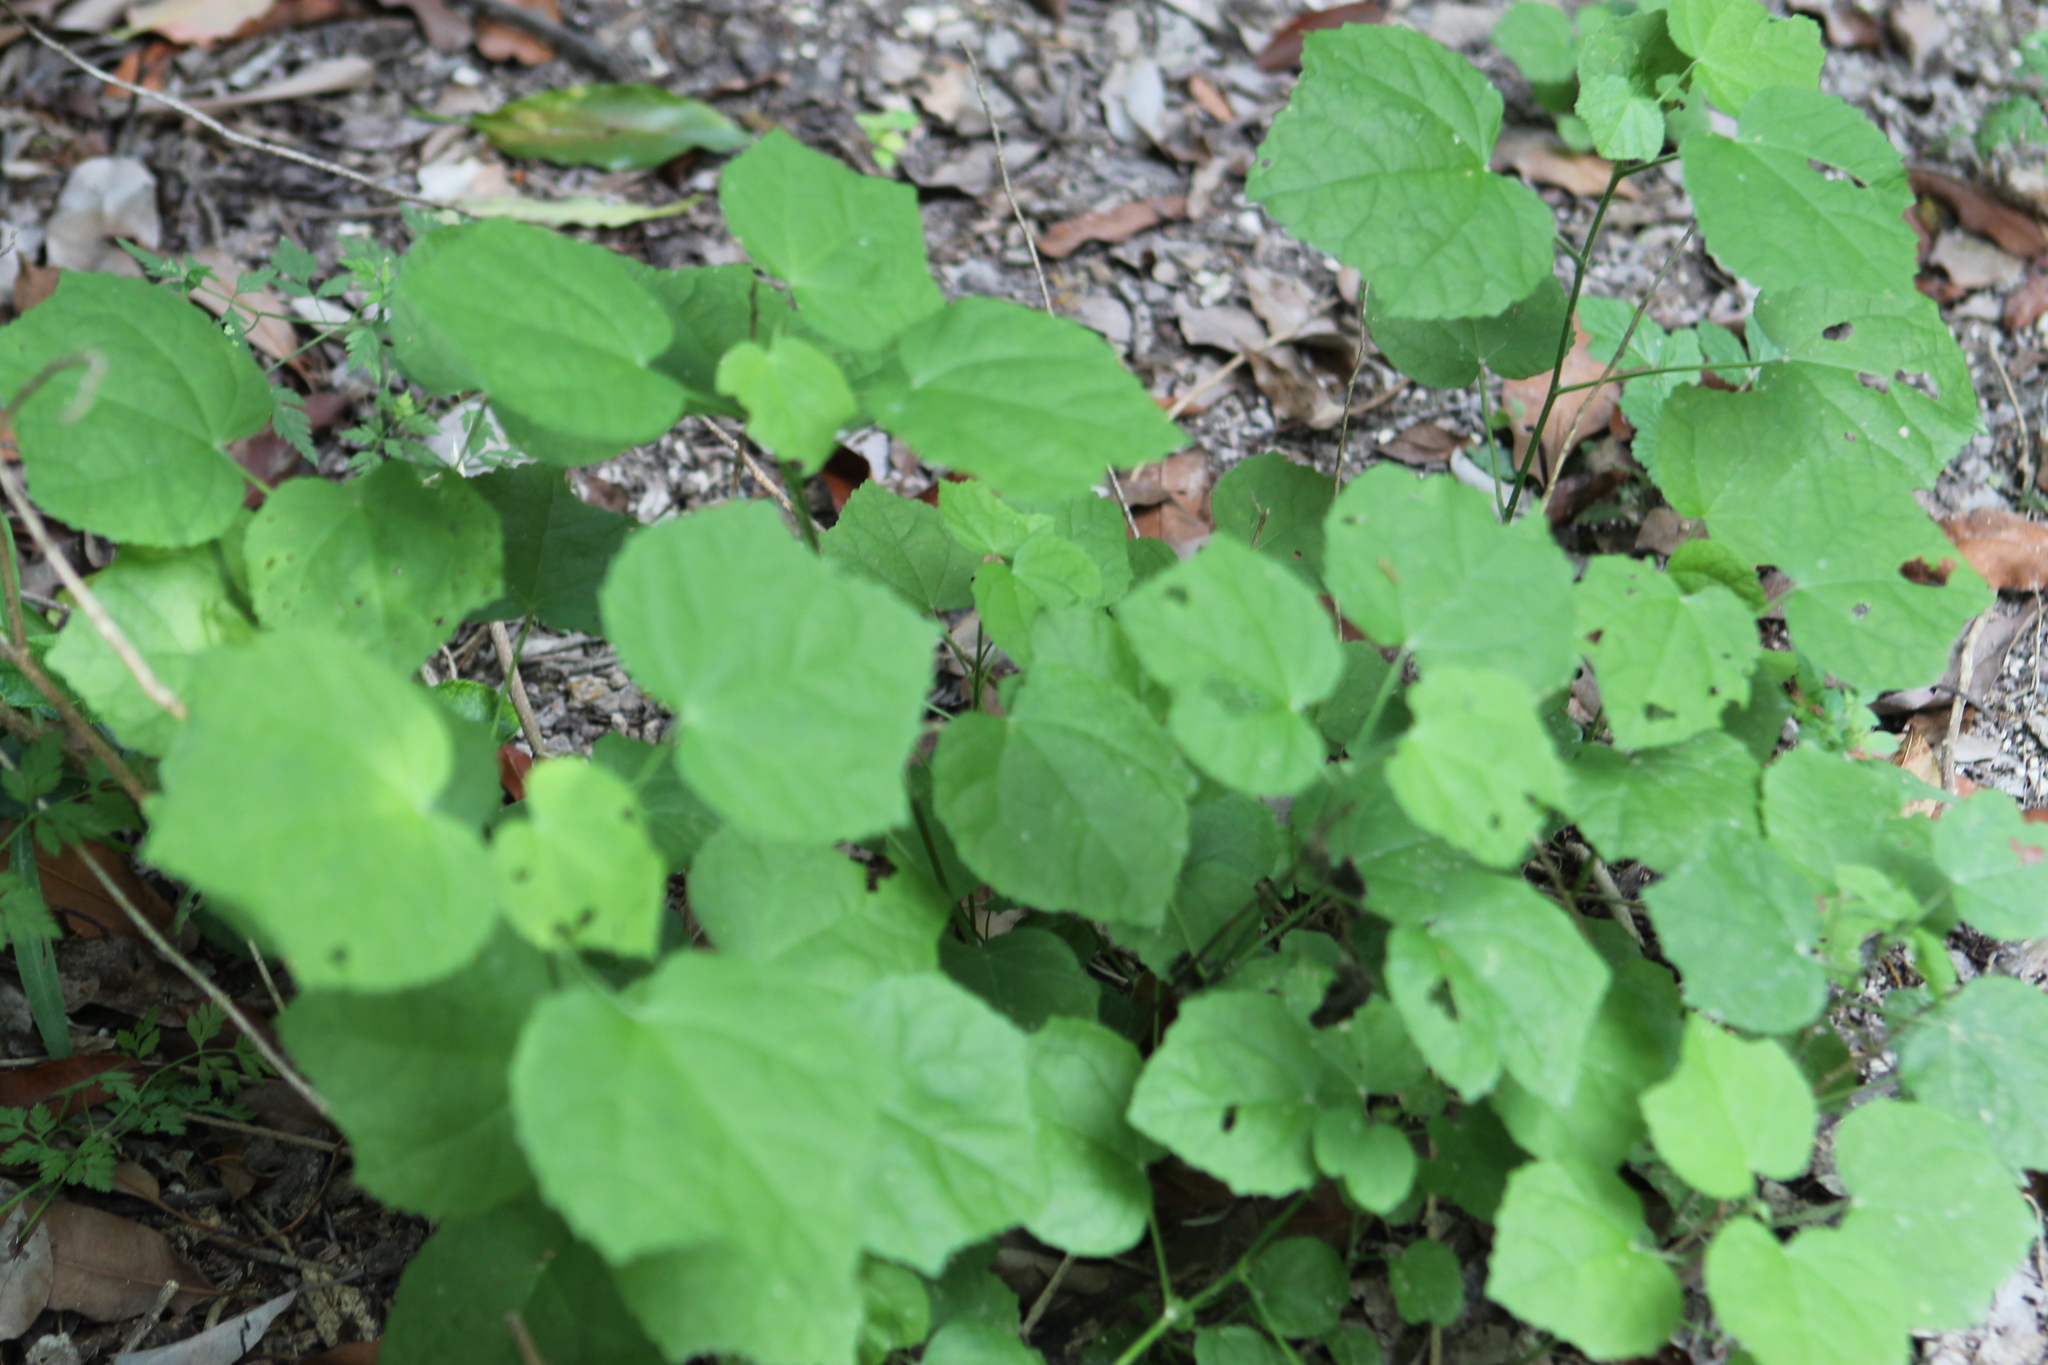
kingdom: Plantae
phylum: Tracheophyta
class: Magnoliopsida
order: Malvales
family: Malvaceae
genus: Malvaviscus
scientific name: Malvaviscus arboreus
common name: Wax mallow
